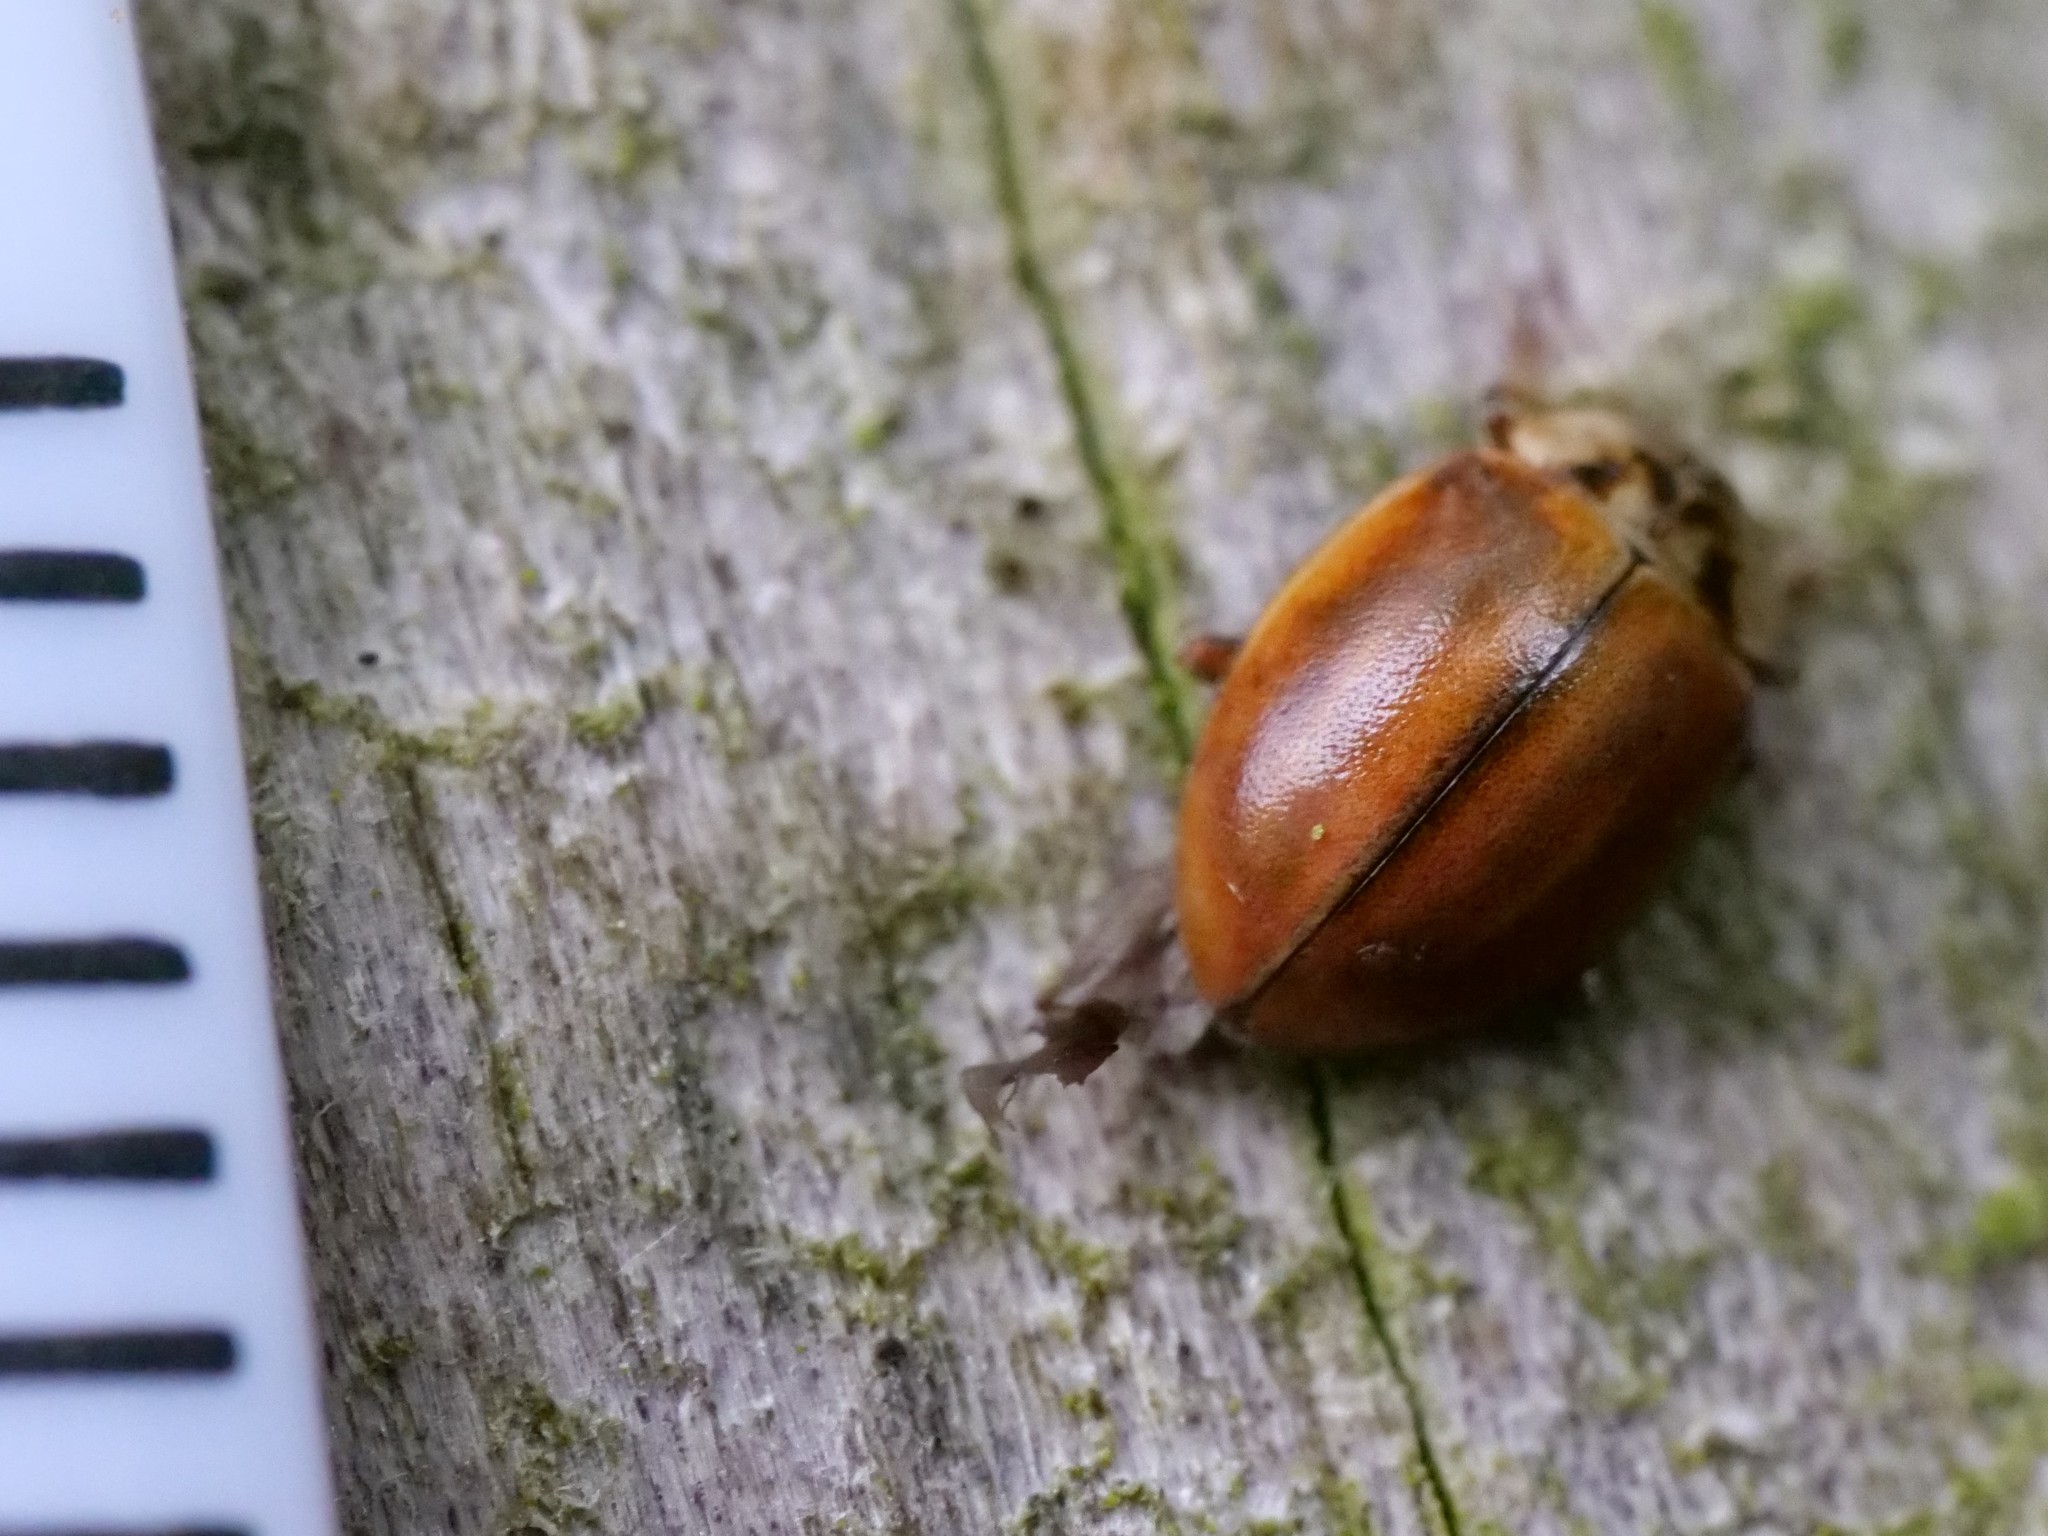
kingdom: Animalia
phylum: Arthropoda
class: Insecta
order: Coleoptera
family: Coccinellidae
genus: Aphidecta
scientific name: Aphidecta obliterata
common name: Larch ladybird
